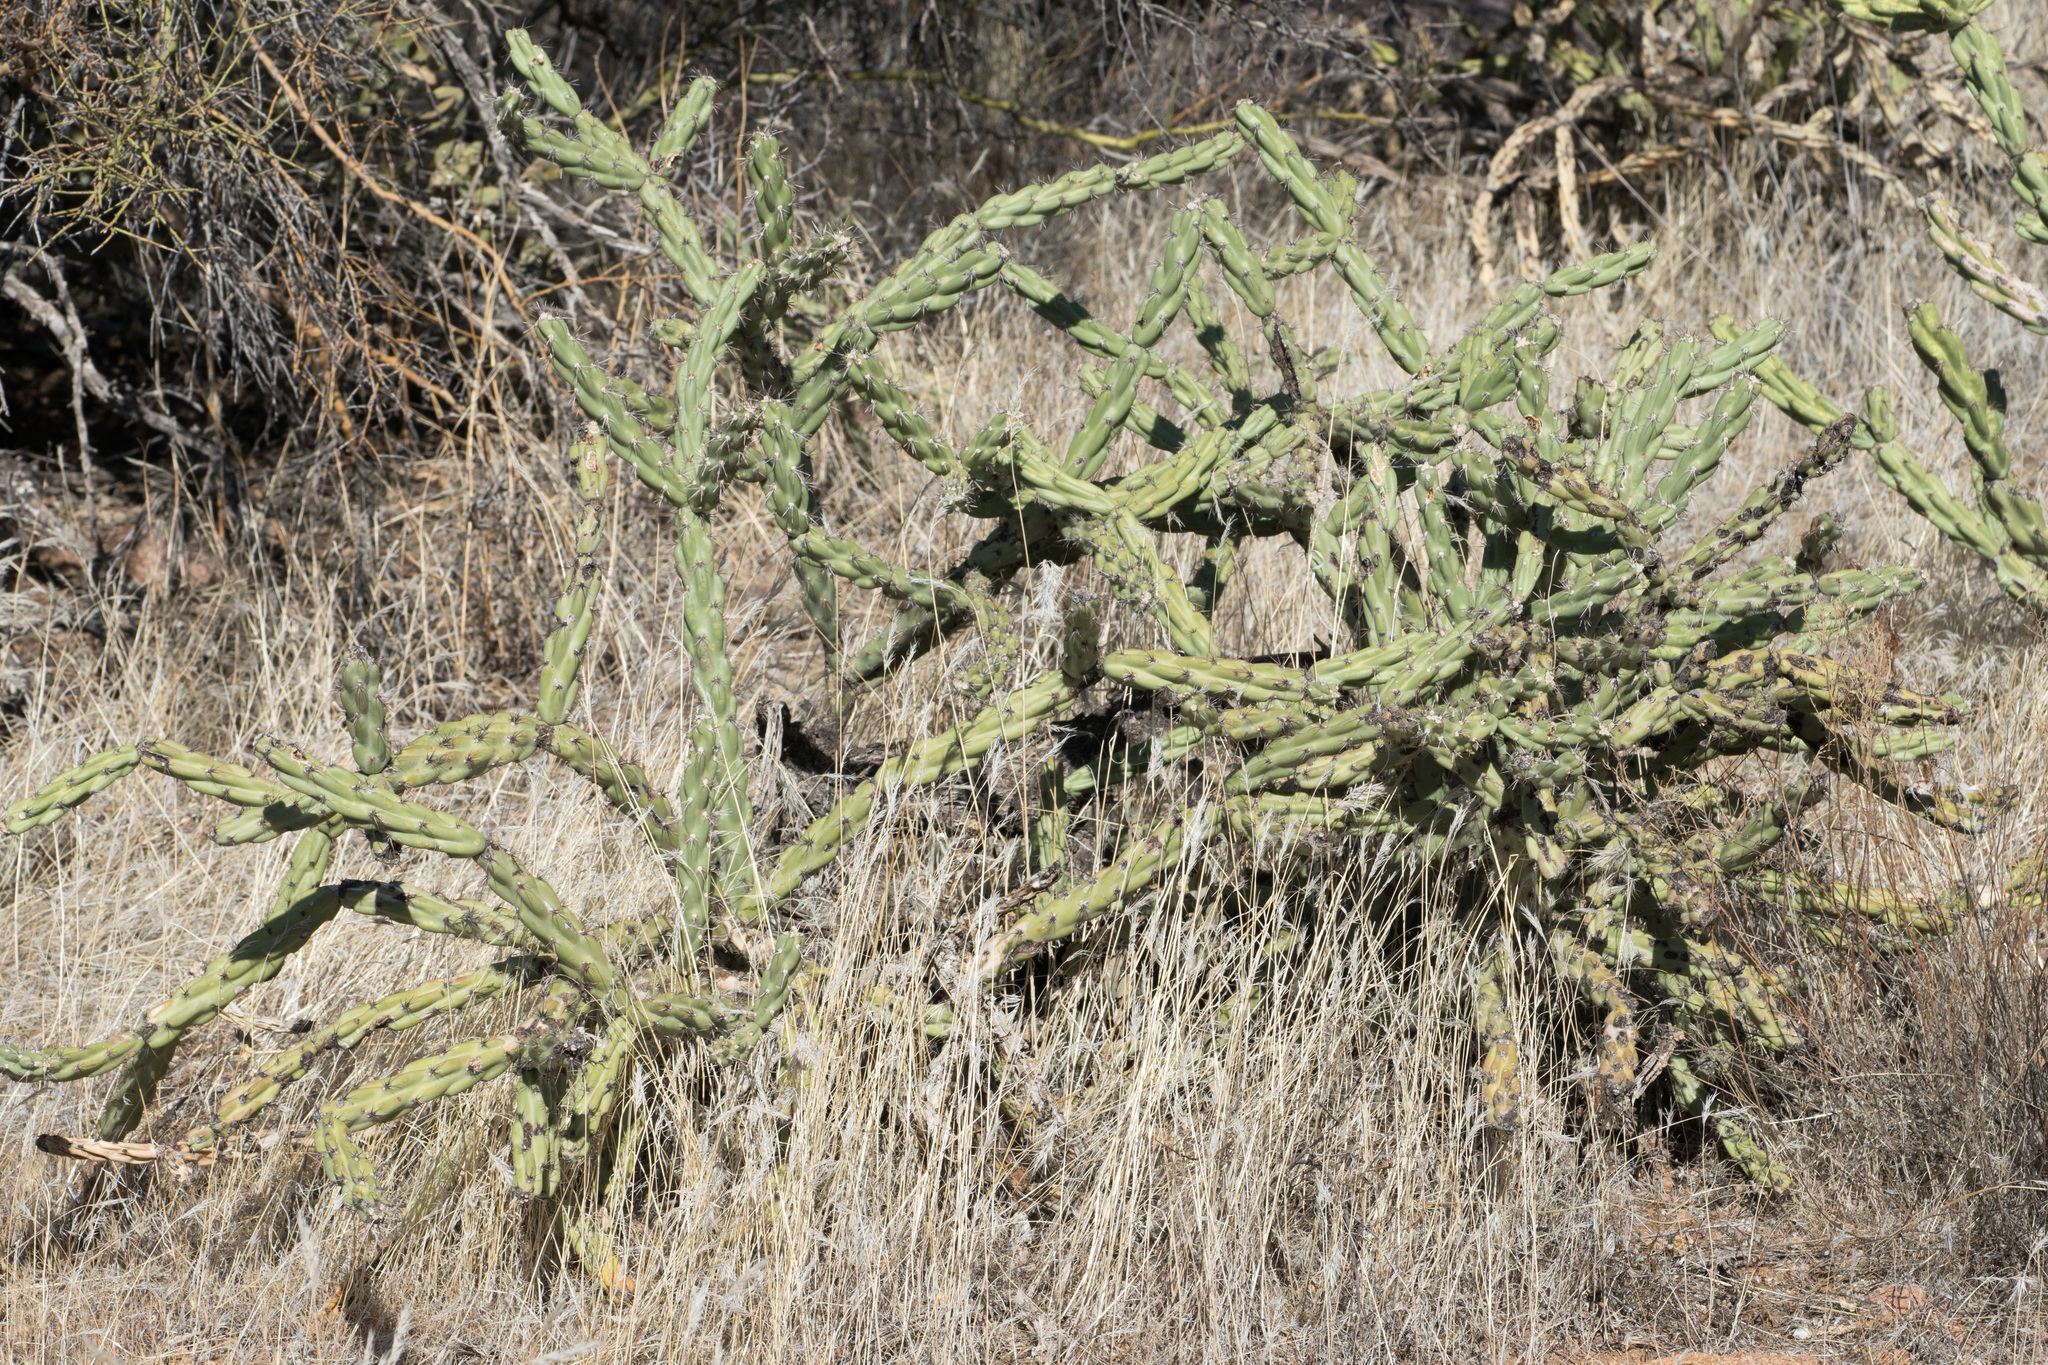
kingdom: Plantae
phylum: Tracheophyta
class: Magnoliopsida
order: Caryophyllales
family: Cactaceae
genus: Cylindropuntia
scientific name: Cylindropuntia acanthocarpa
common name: Buckhorn cholla
